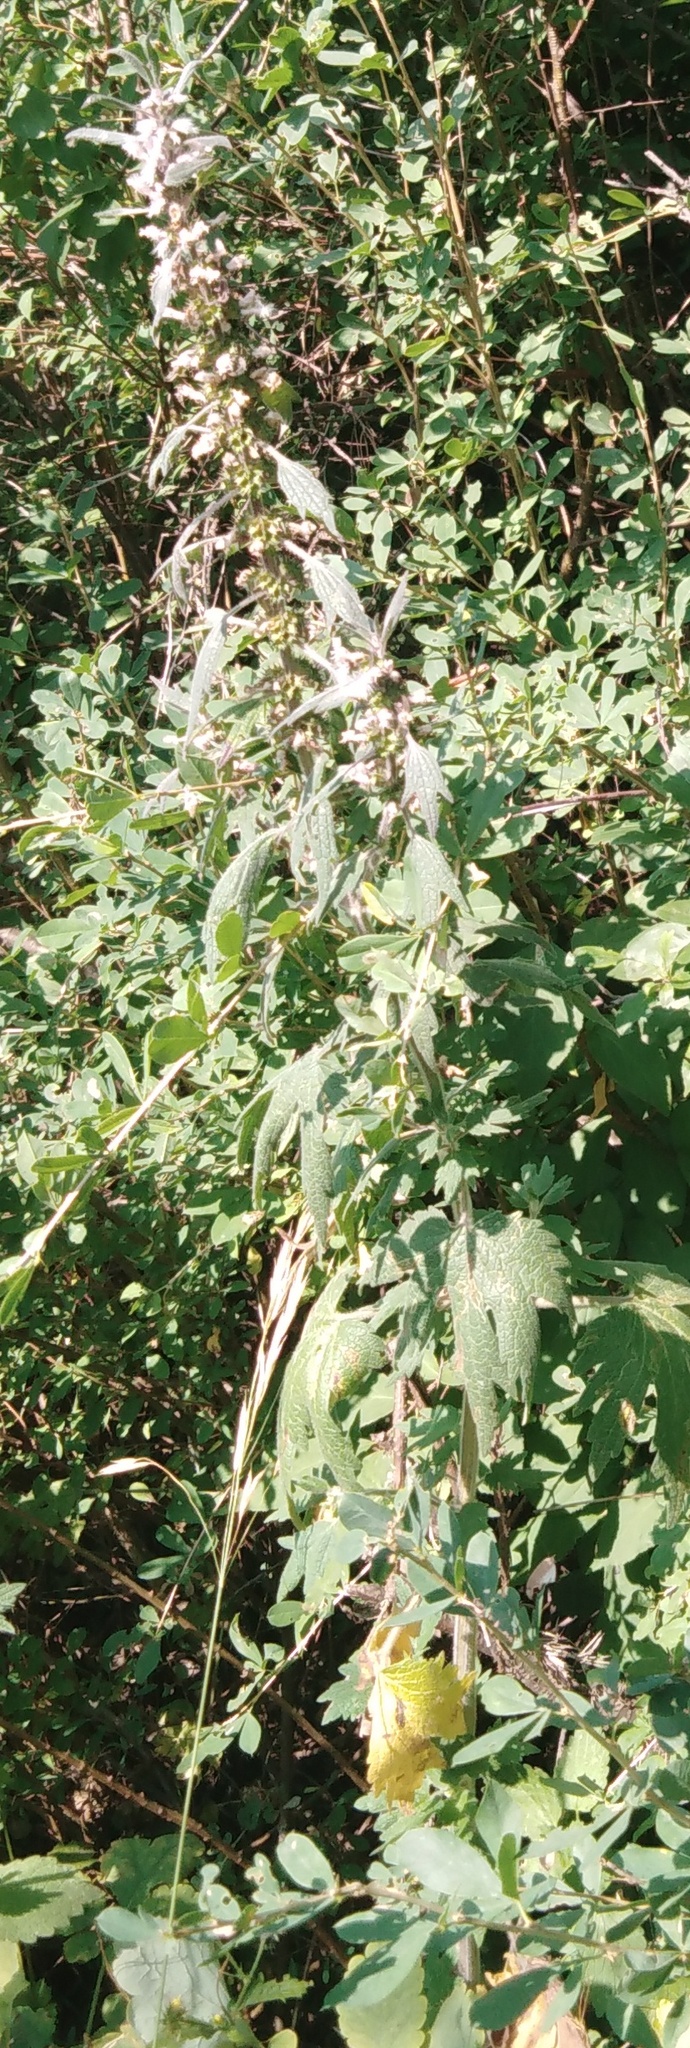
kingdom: Plantae
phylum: Tracheophyta
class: Magnoliopsida
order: Lamiales
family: Lamiaceae
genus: Leonurus
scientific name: Leonurus quinquelobatus
